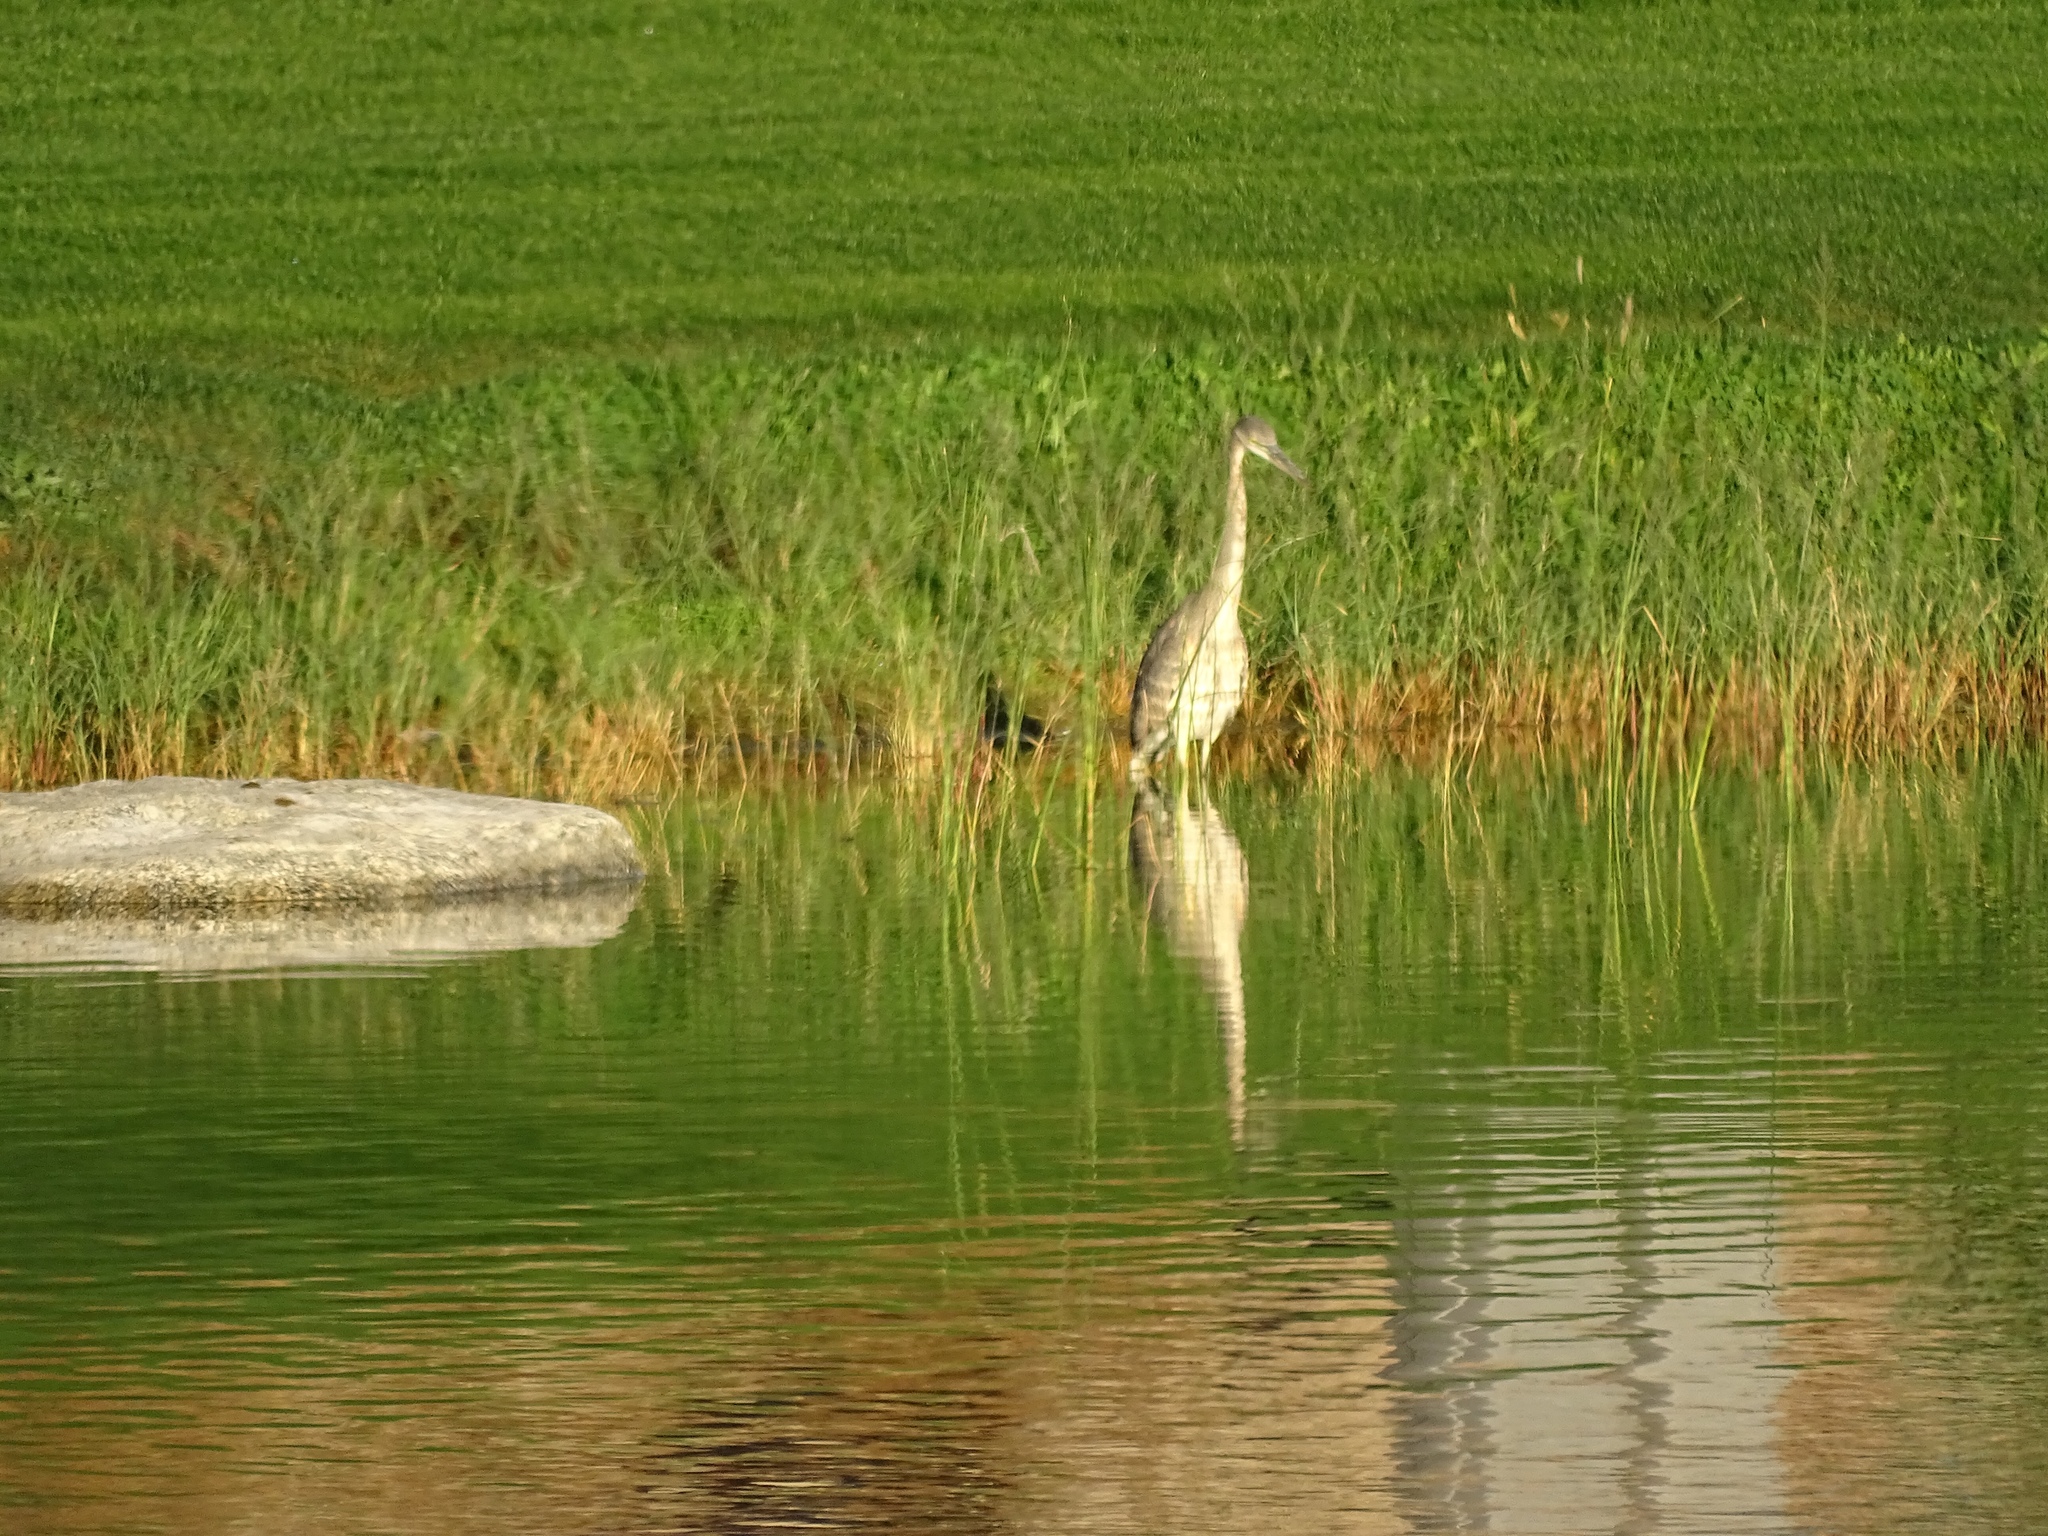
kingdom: Animalia
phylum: Chordata
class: Aves
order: Pelecaniformes
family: Ardeidae
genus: Ardea
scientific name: Ardea herodias
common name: Great blue heron
